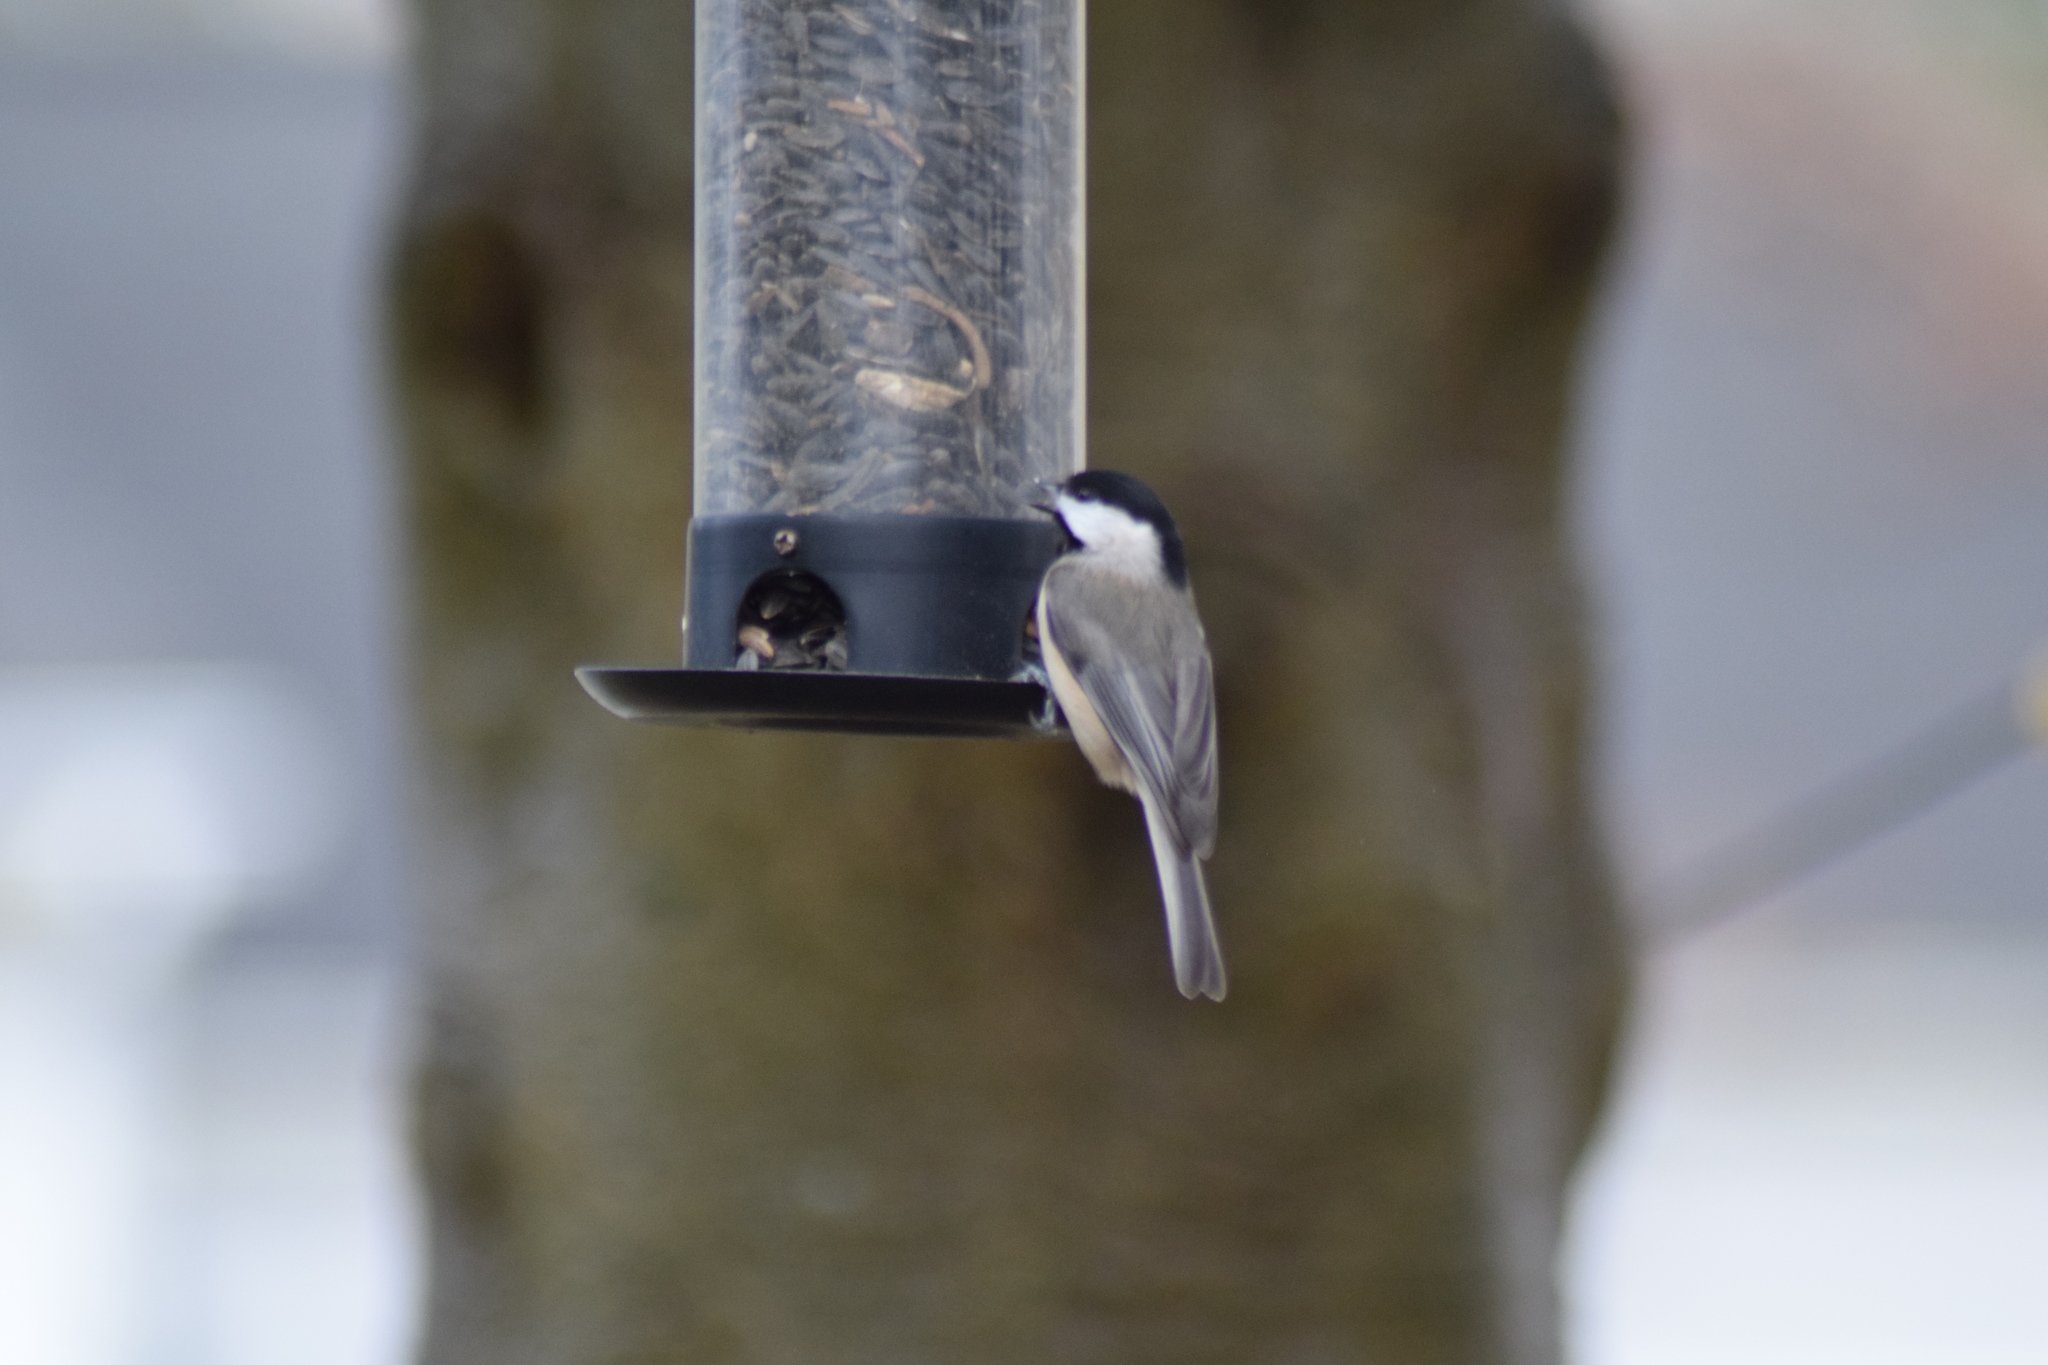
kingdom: Animalia
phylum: Chordata
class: Aves
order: Passeriformes
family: Paridae
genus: Poecile
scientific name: Poecile carolinensis
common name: Carolina chickadee
